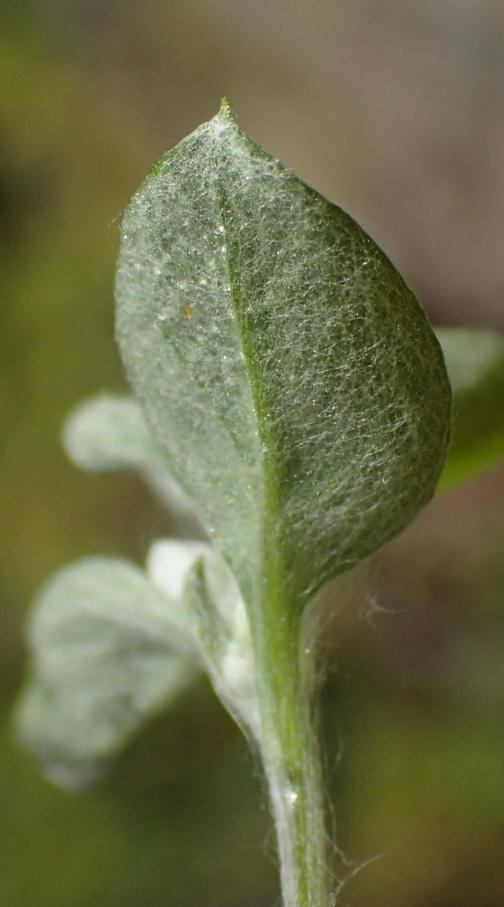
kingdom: Plantae
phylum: Tracheophyta
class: Magnoliopsida
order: Asterales
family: Asteraceae
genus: Troglophyton
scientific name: Troglophyton capillaceum
